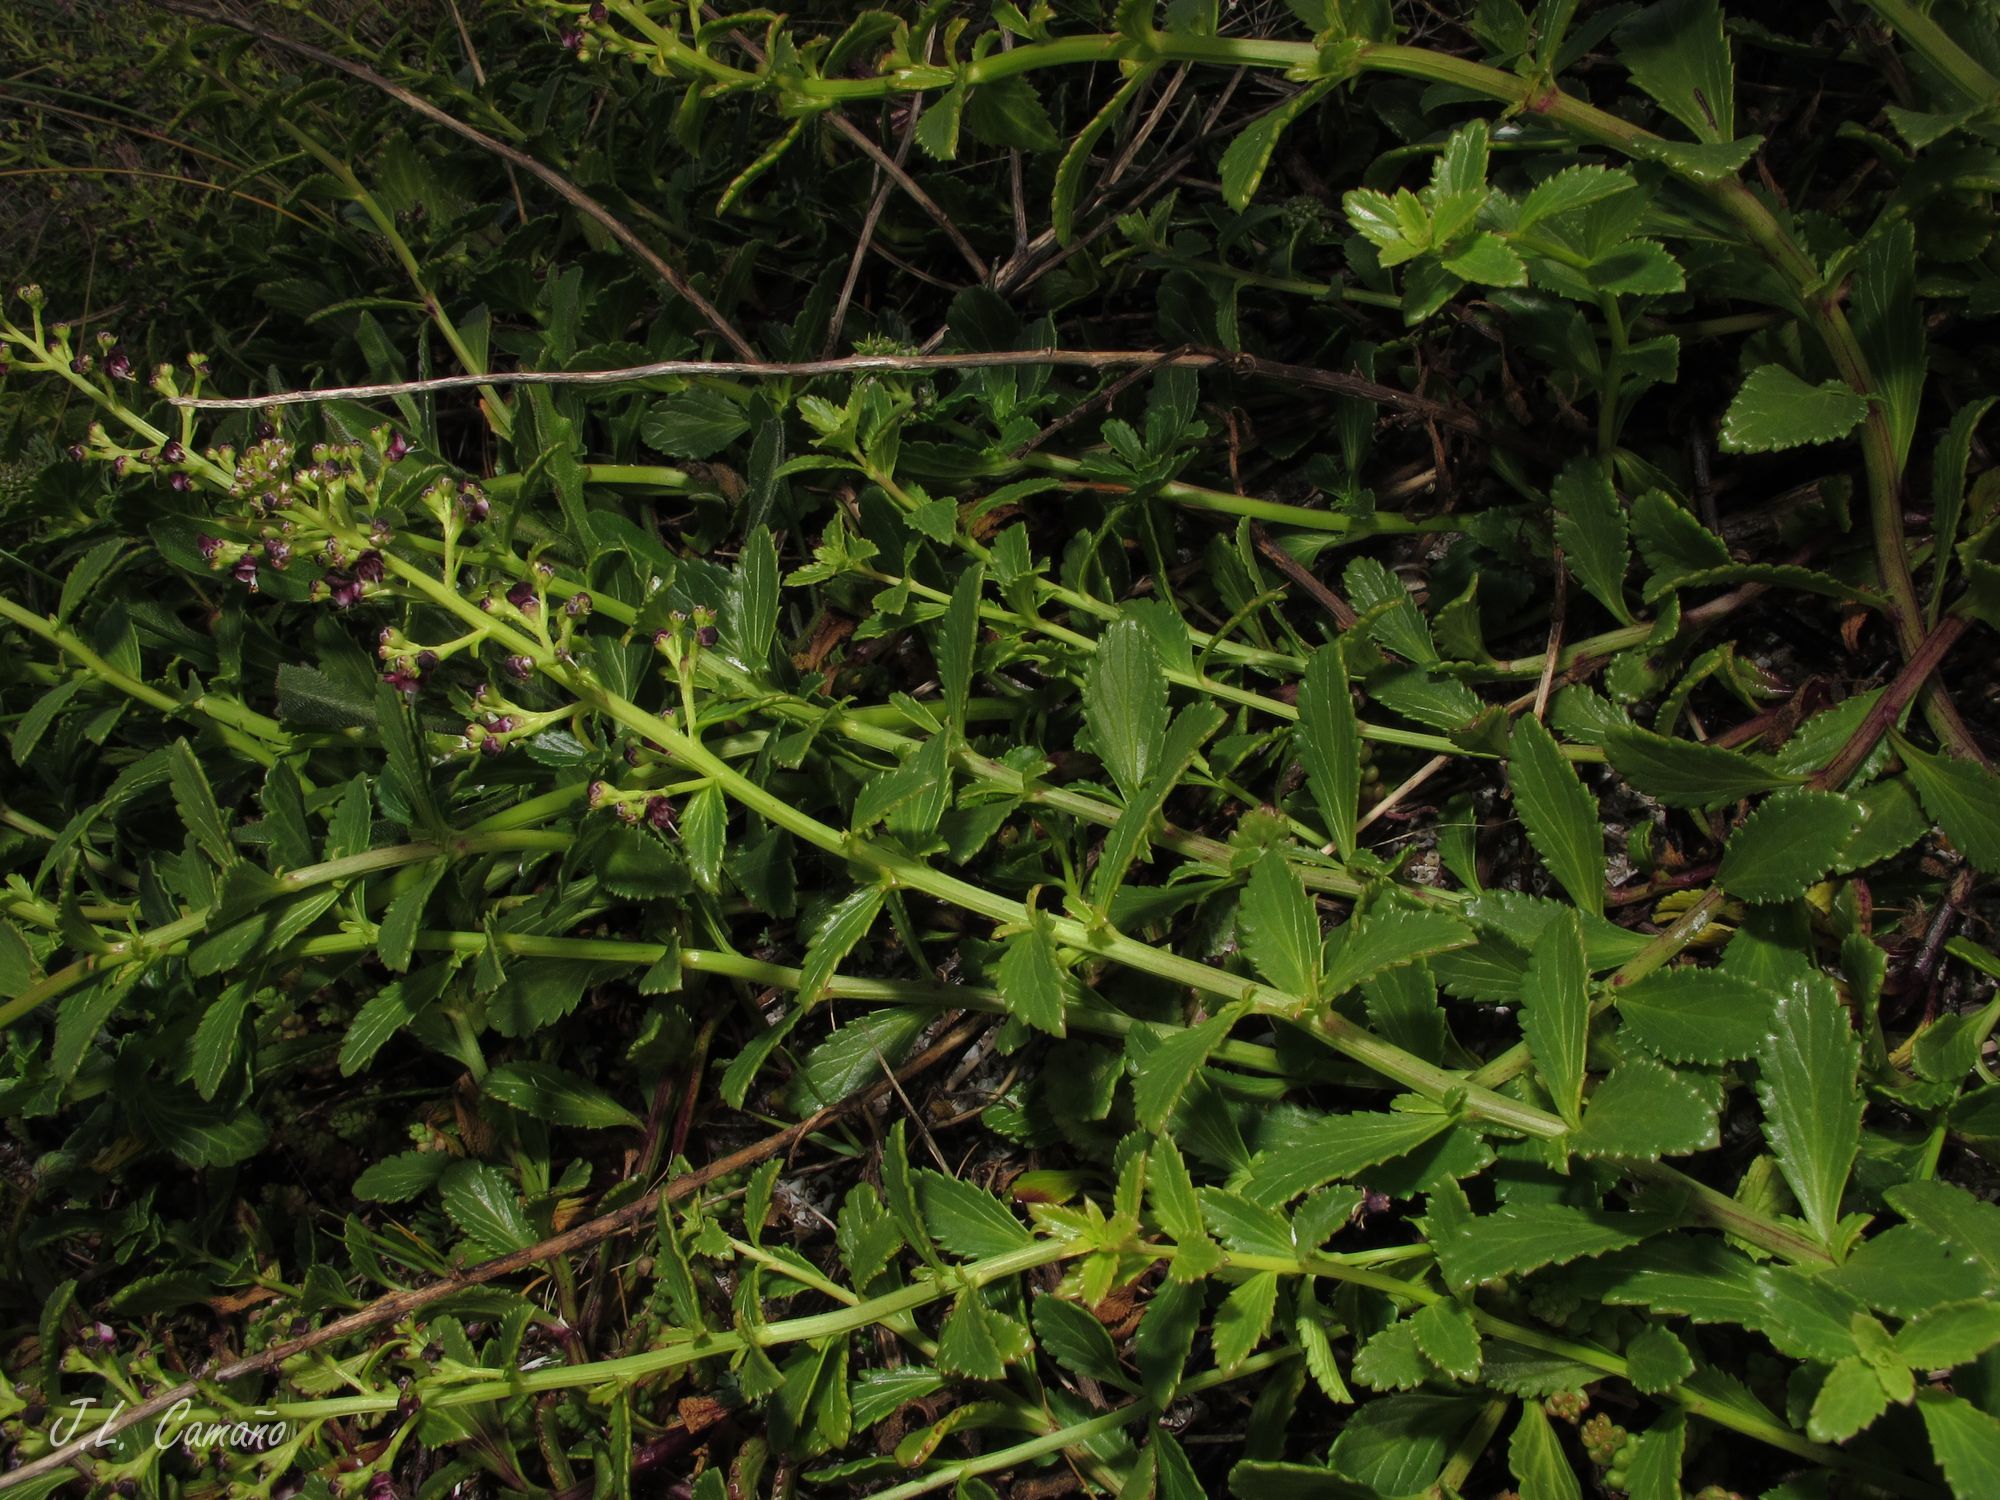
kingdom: Plantae
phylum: Tracheophyta
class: Magnoliopsida
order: Lamiales
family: Scrophulariaceae
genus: Scrophularia
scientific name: Scrophularia frutescens
